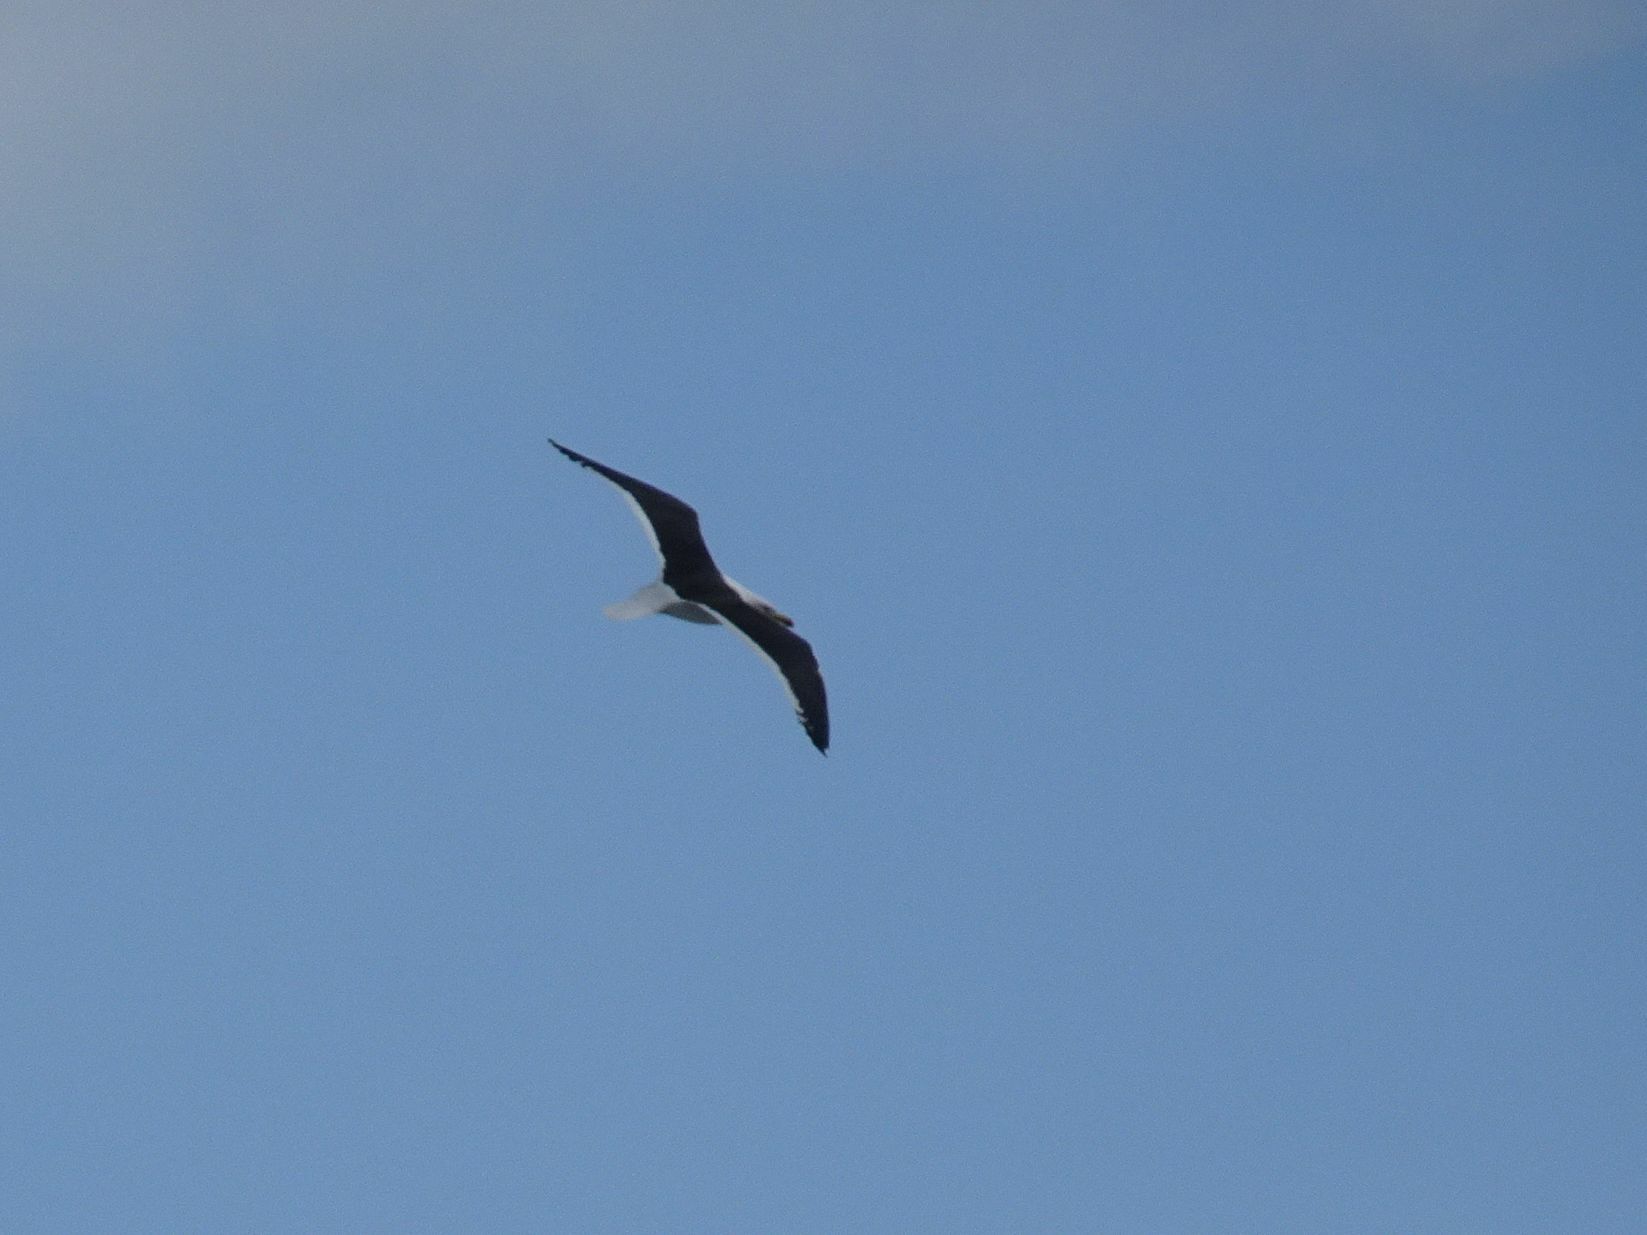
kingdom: Animalia
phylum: Chordata
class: Aves
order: Charadriiformes
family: Laridae
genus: Larus
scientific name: Larus dominicanus
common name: Kelp gull
